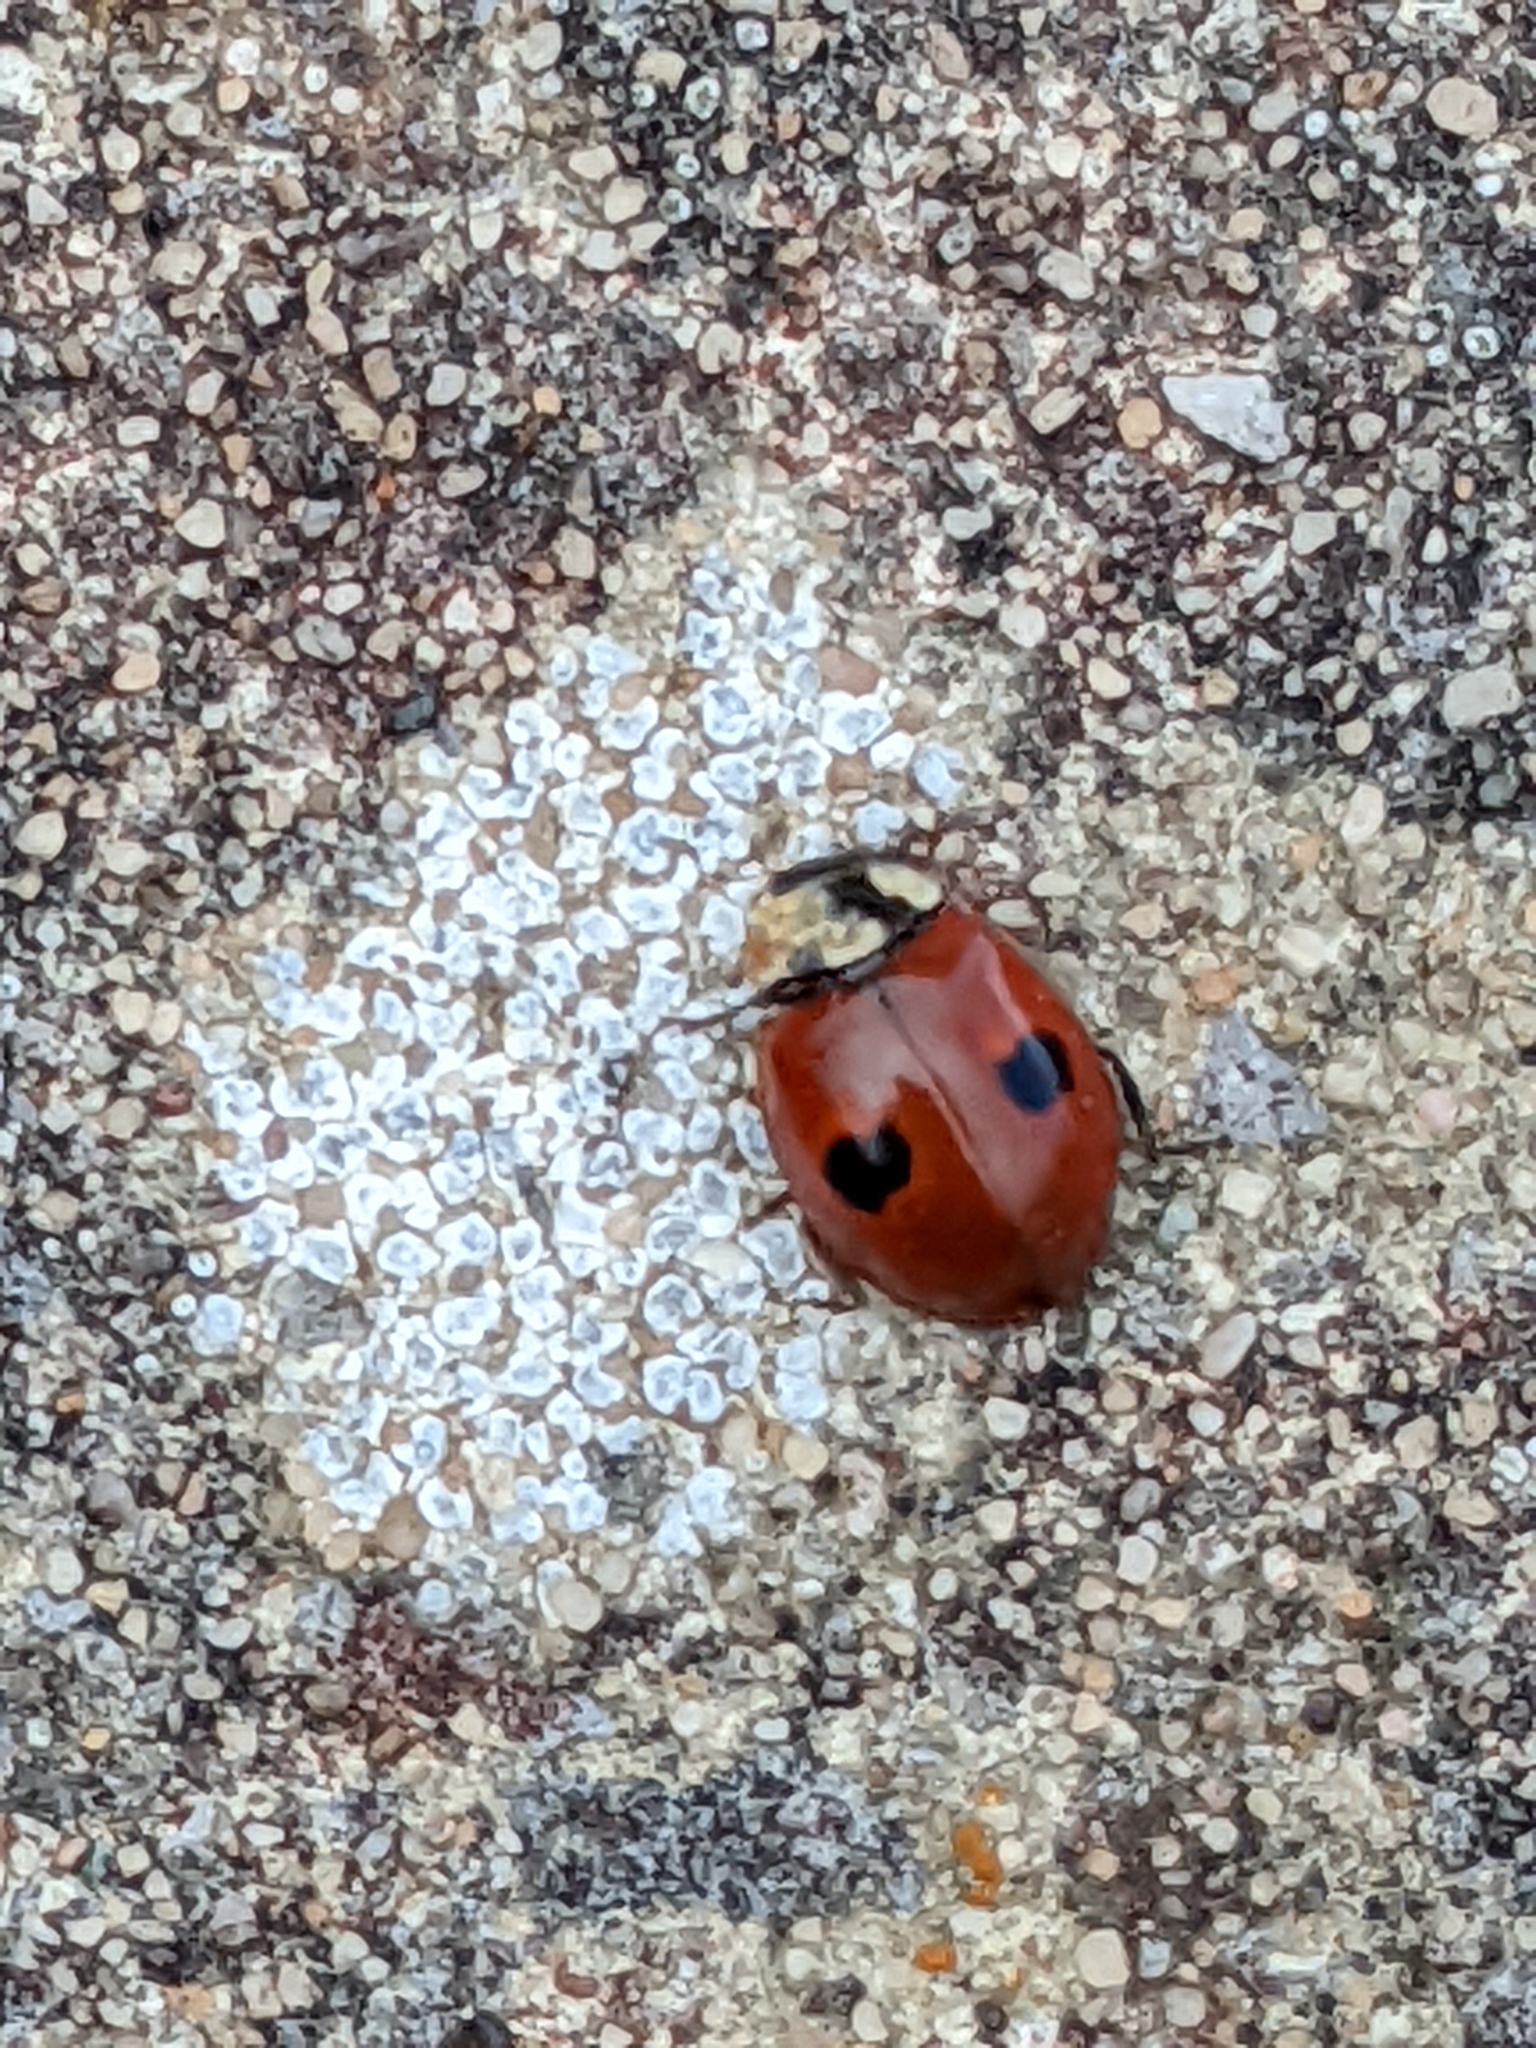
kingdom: Animalia
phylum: Arthropoda
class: Insecta
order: Coleoptera
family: Coccinellidae
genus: Adalia
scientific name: Adalia bipunctata
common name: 2-spot ladybird
